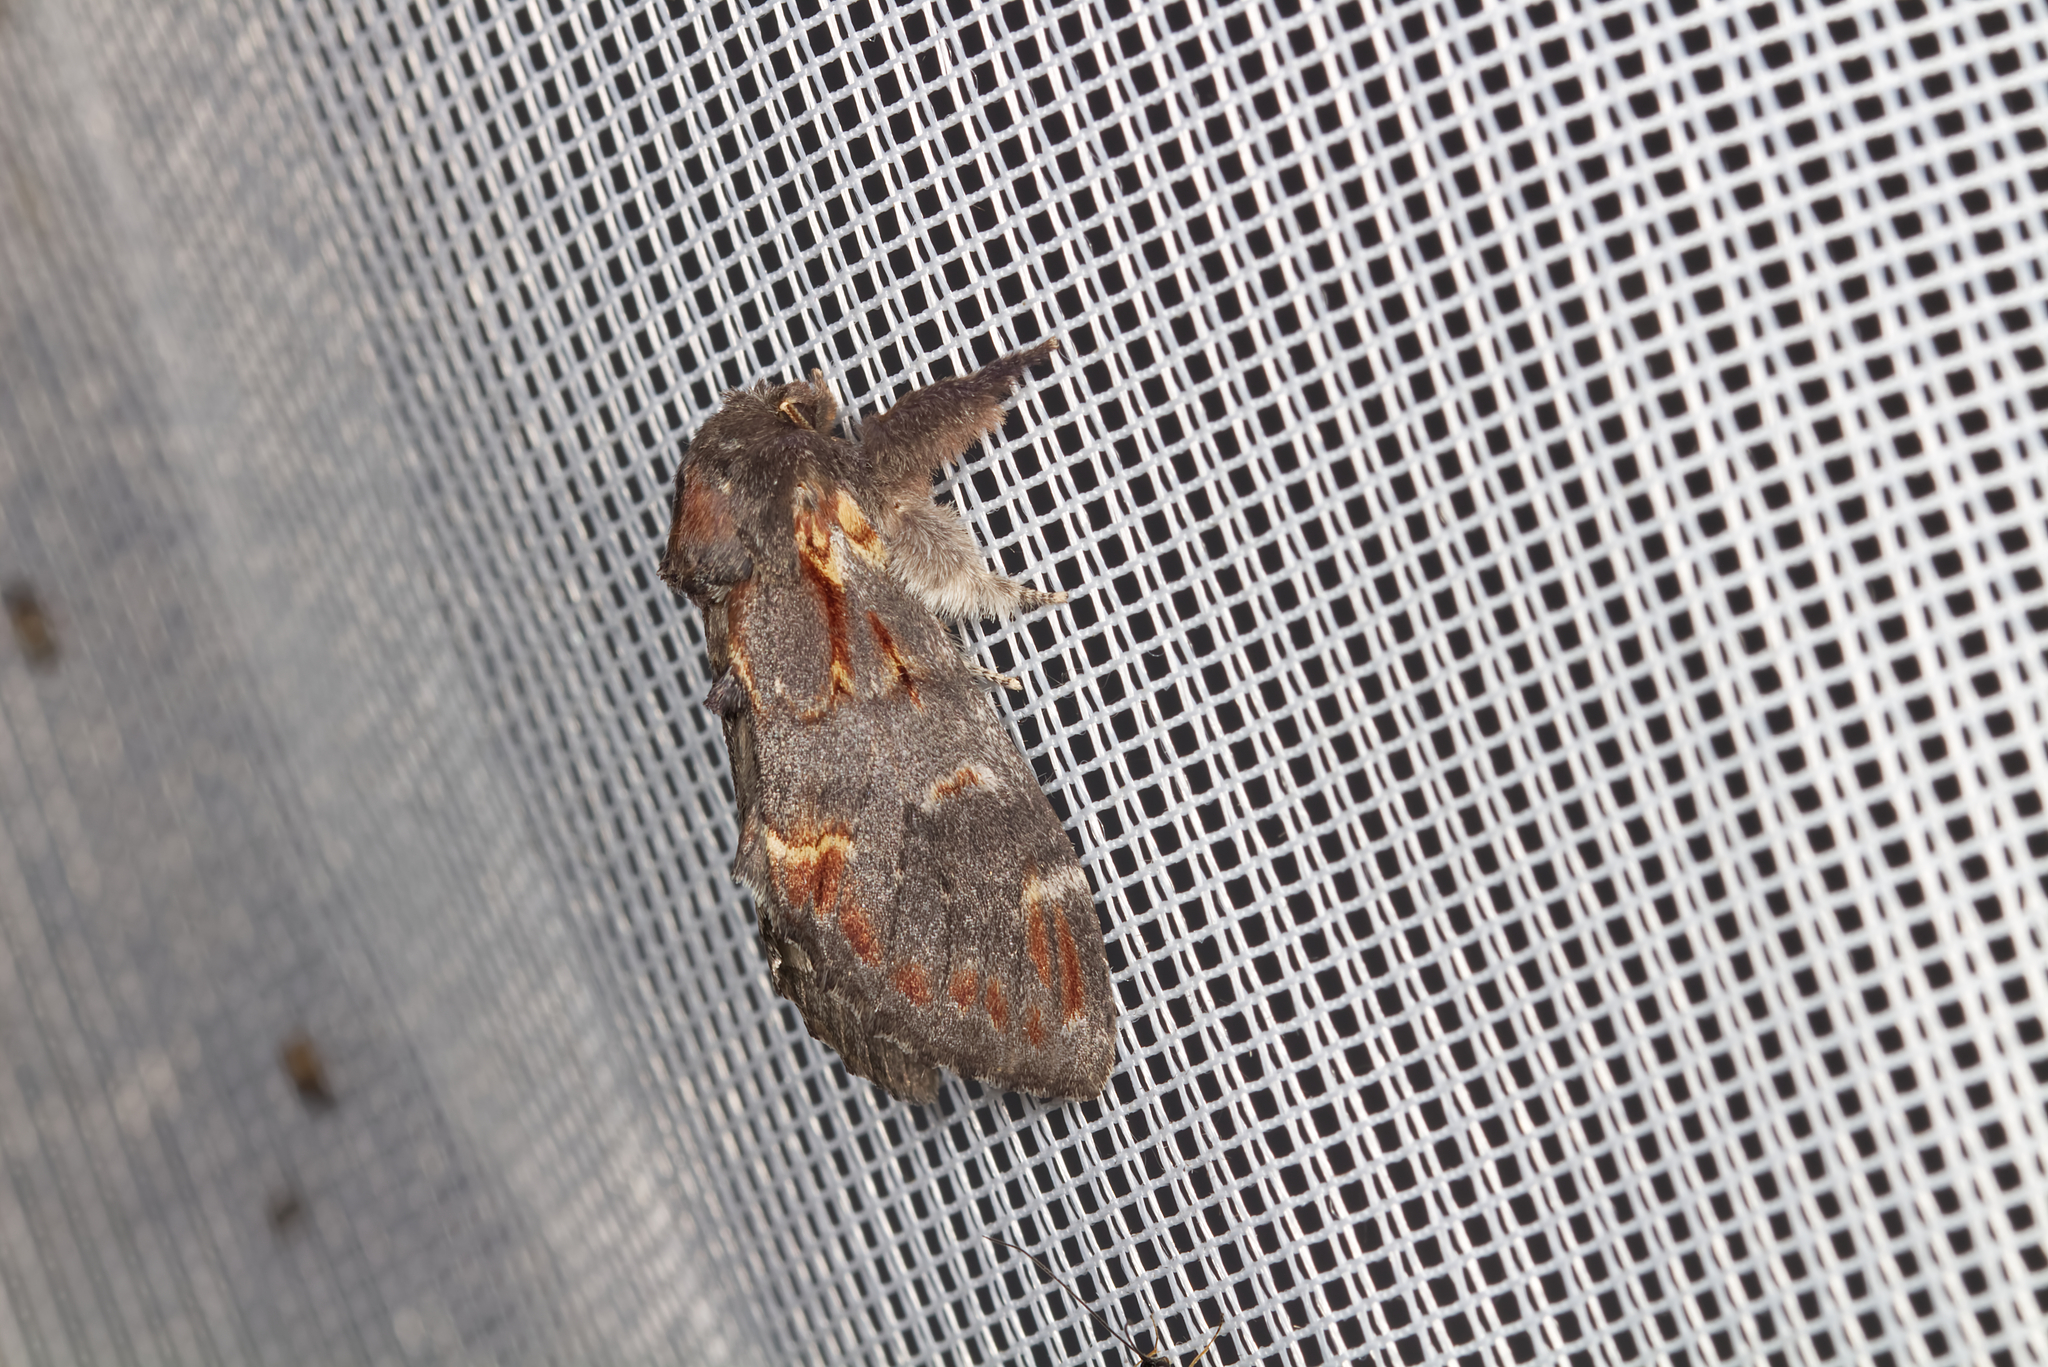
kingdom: Animalia
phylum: Arthropoda
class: Insecta
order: Lepidoptera
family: Notodontidae
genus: Notodonta
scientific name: Notodonta dromedarius
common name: Iron prominent
